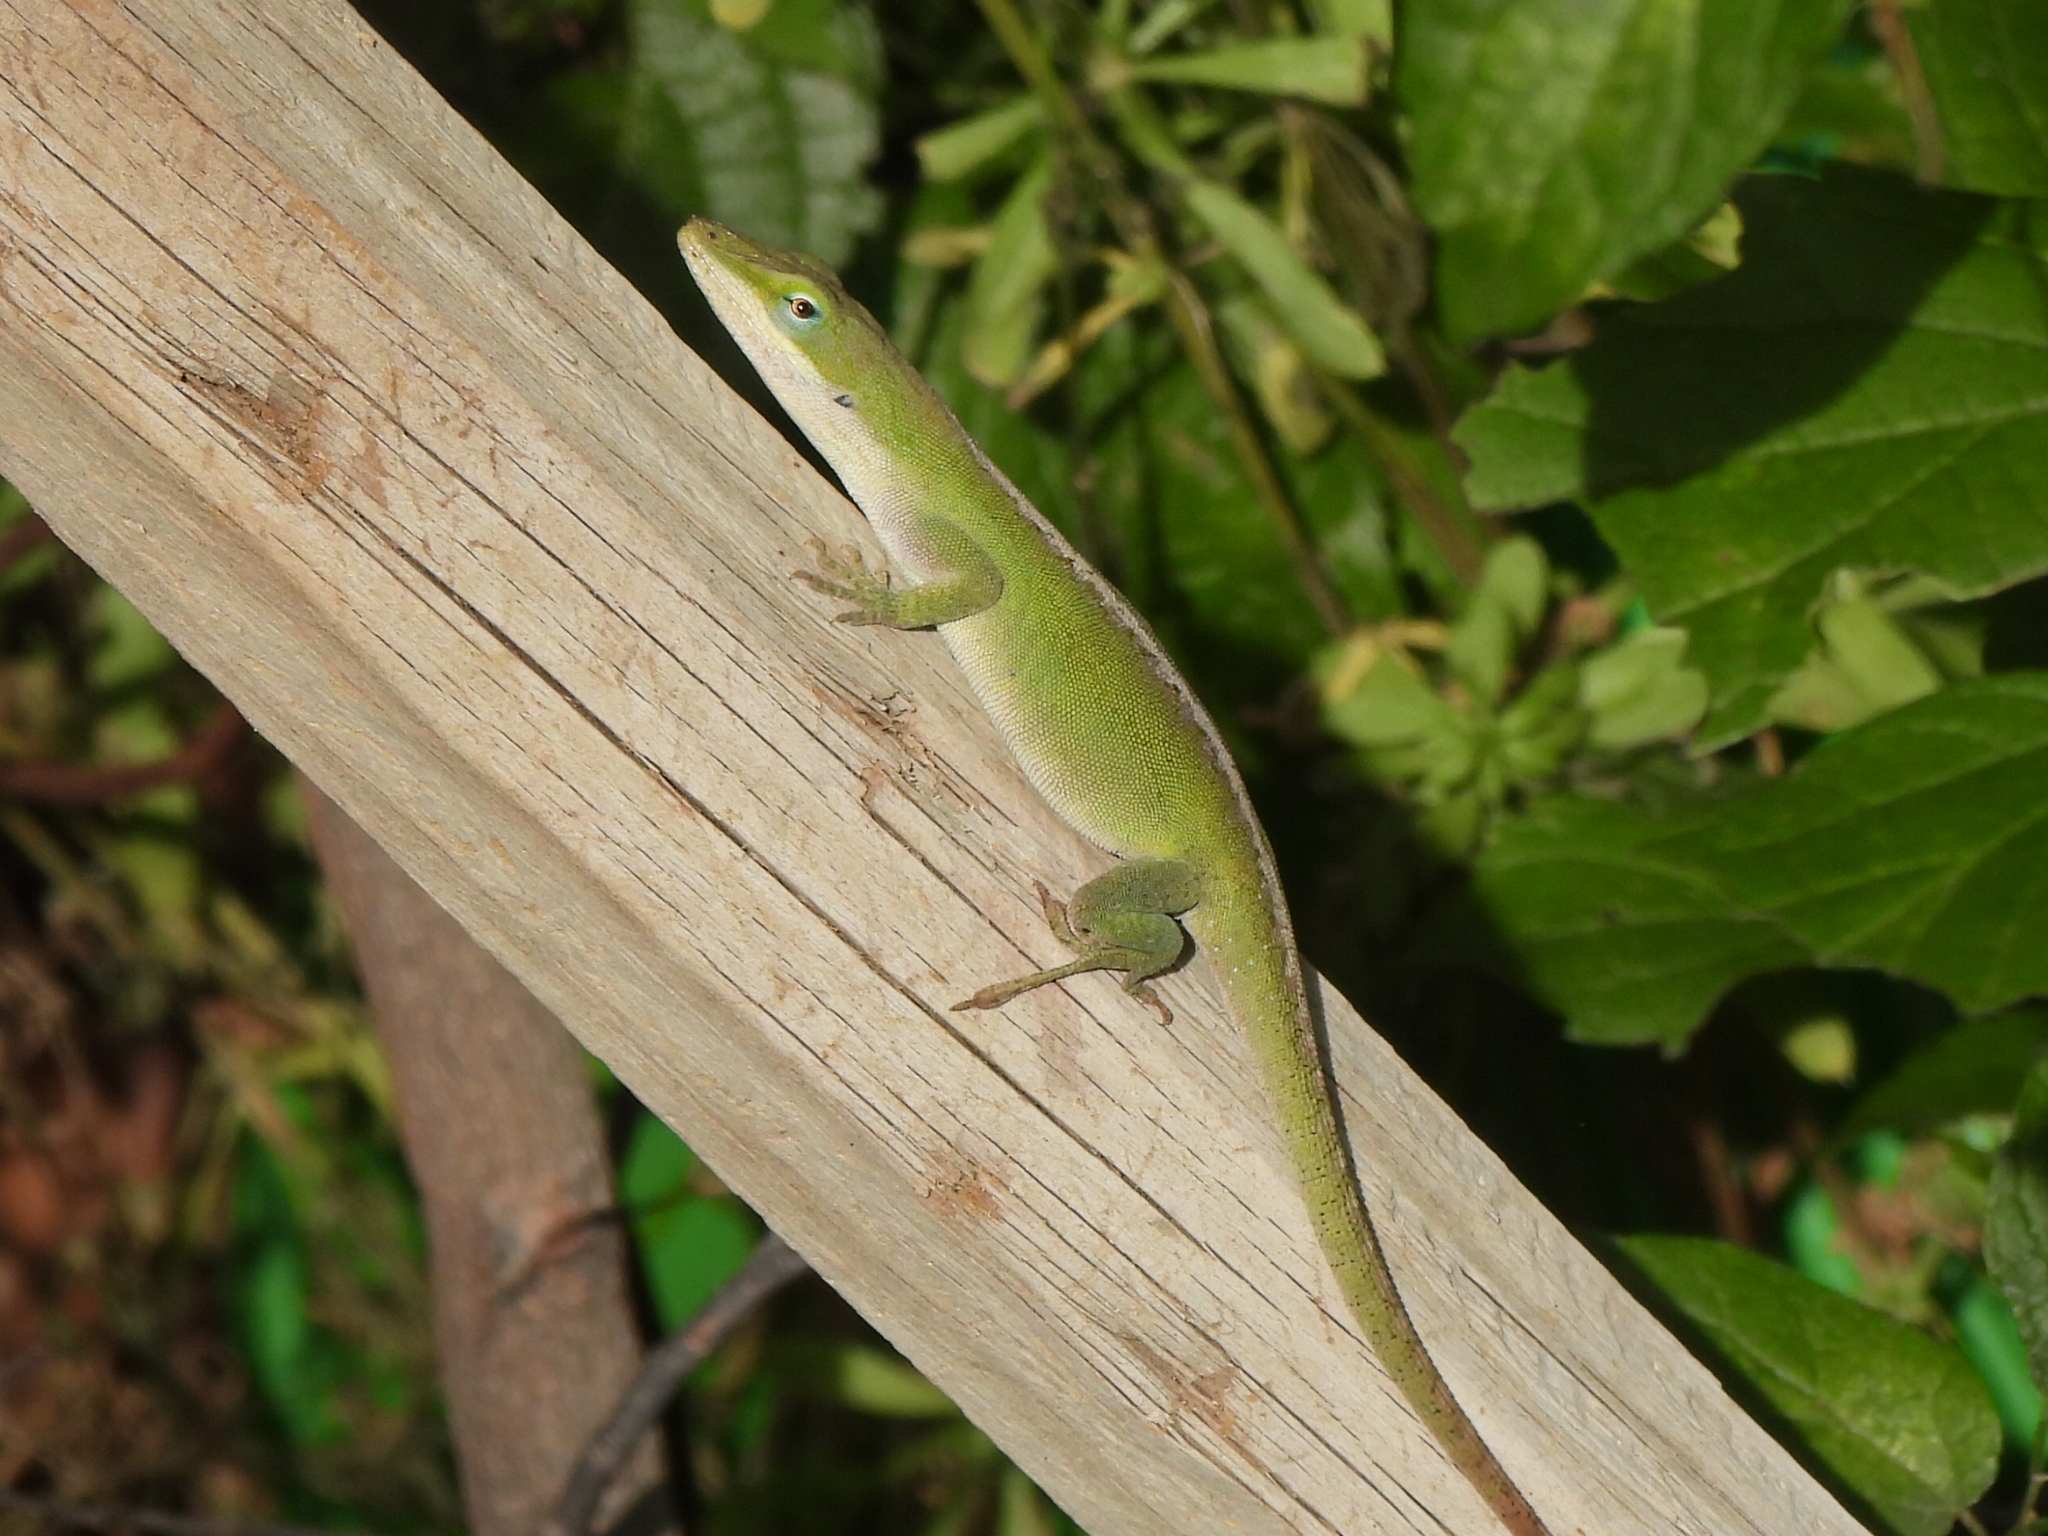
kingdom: Animalia
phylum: Chordata
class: Squamata
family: Dactyloidae
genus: Anolis
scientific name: Anolis carolinensis
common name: Green anole
